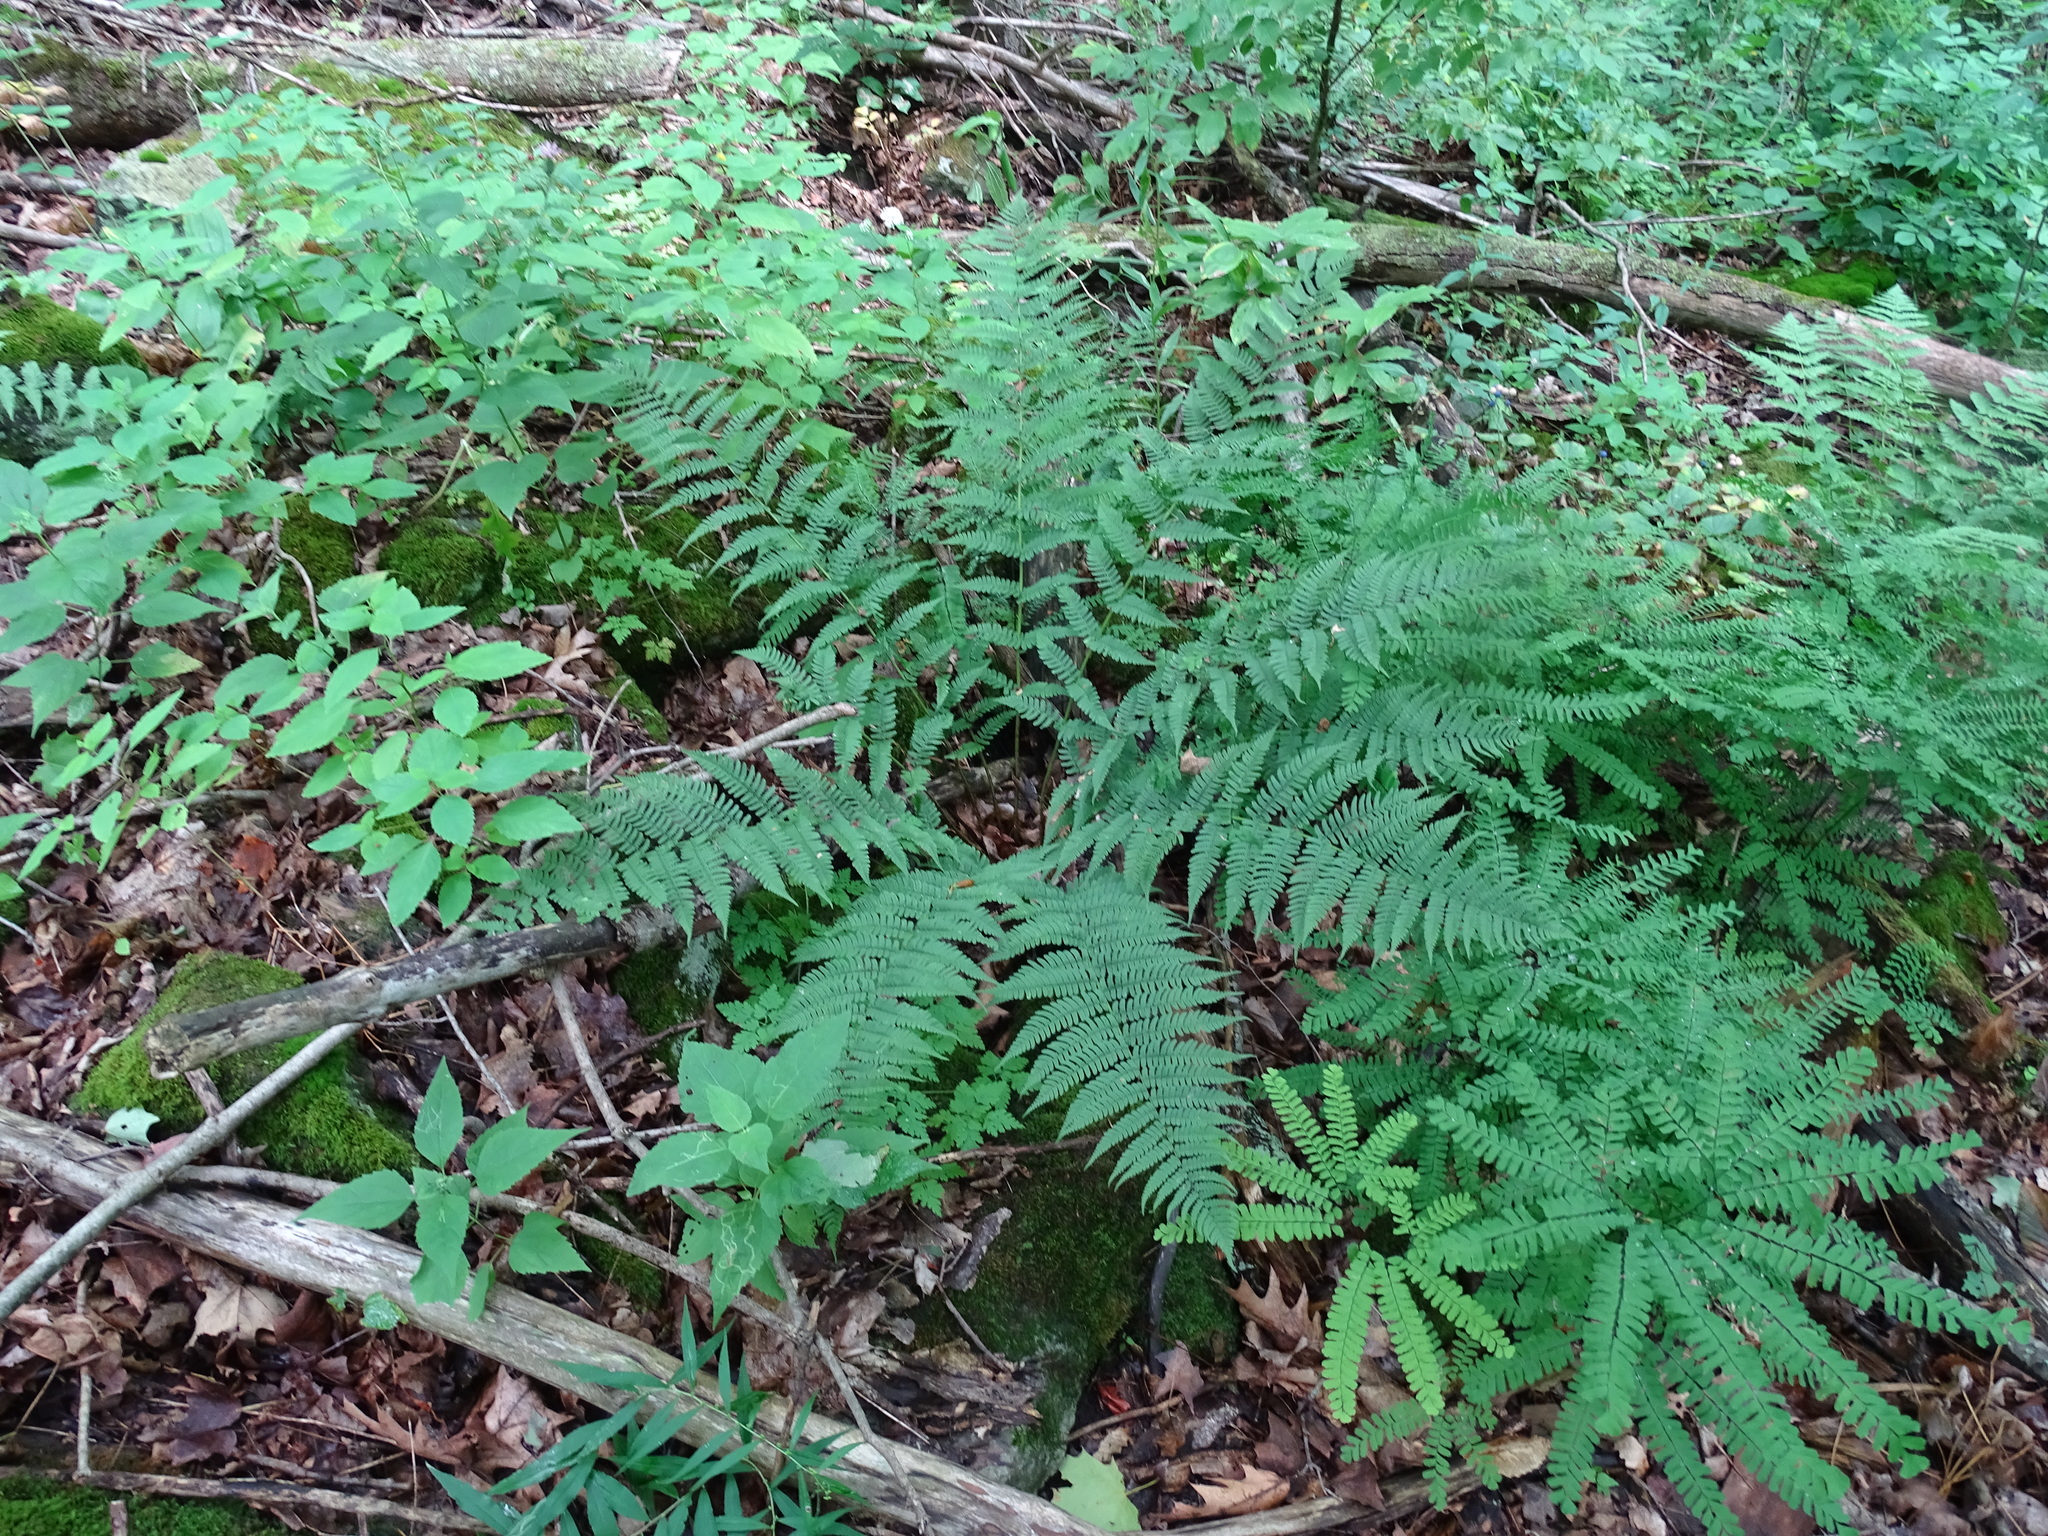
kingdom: Plantae
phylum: Tracheophyta
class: Polypodiopsida
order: Polypodiales
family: Dryopteridaceae
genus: Dryopteris
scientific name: Dryopteris marginalis
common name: Marginal wood fern
